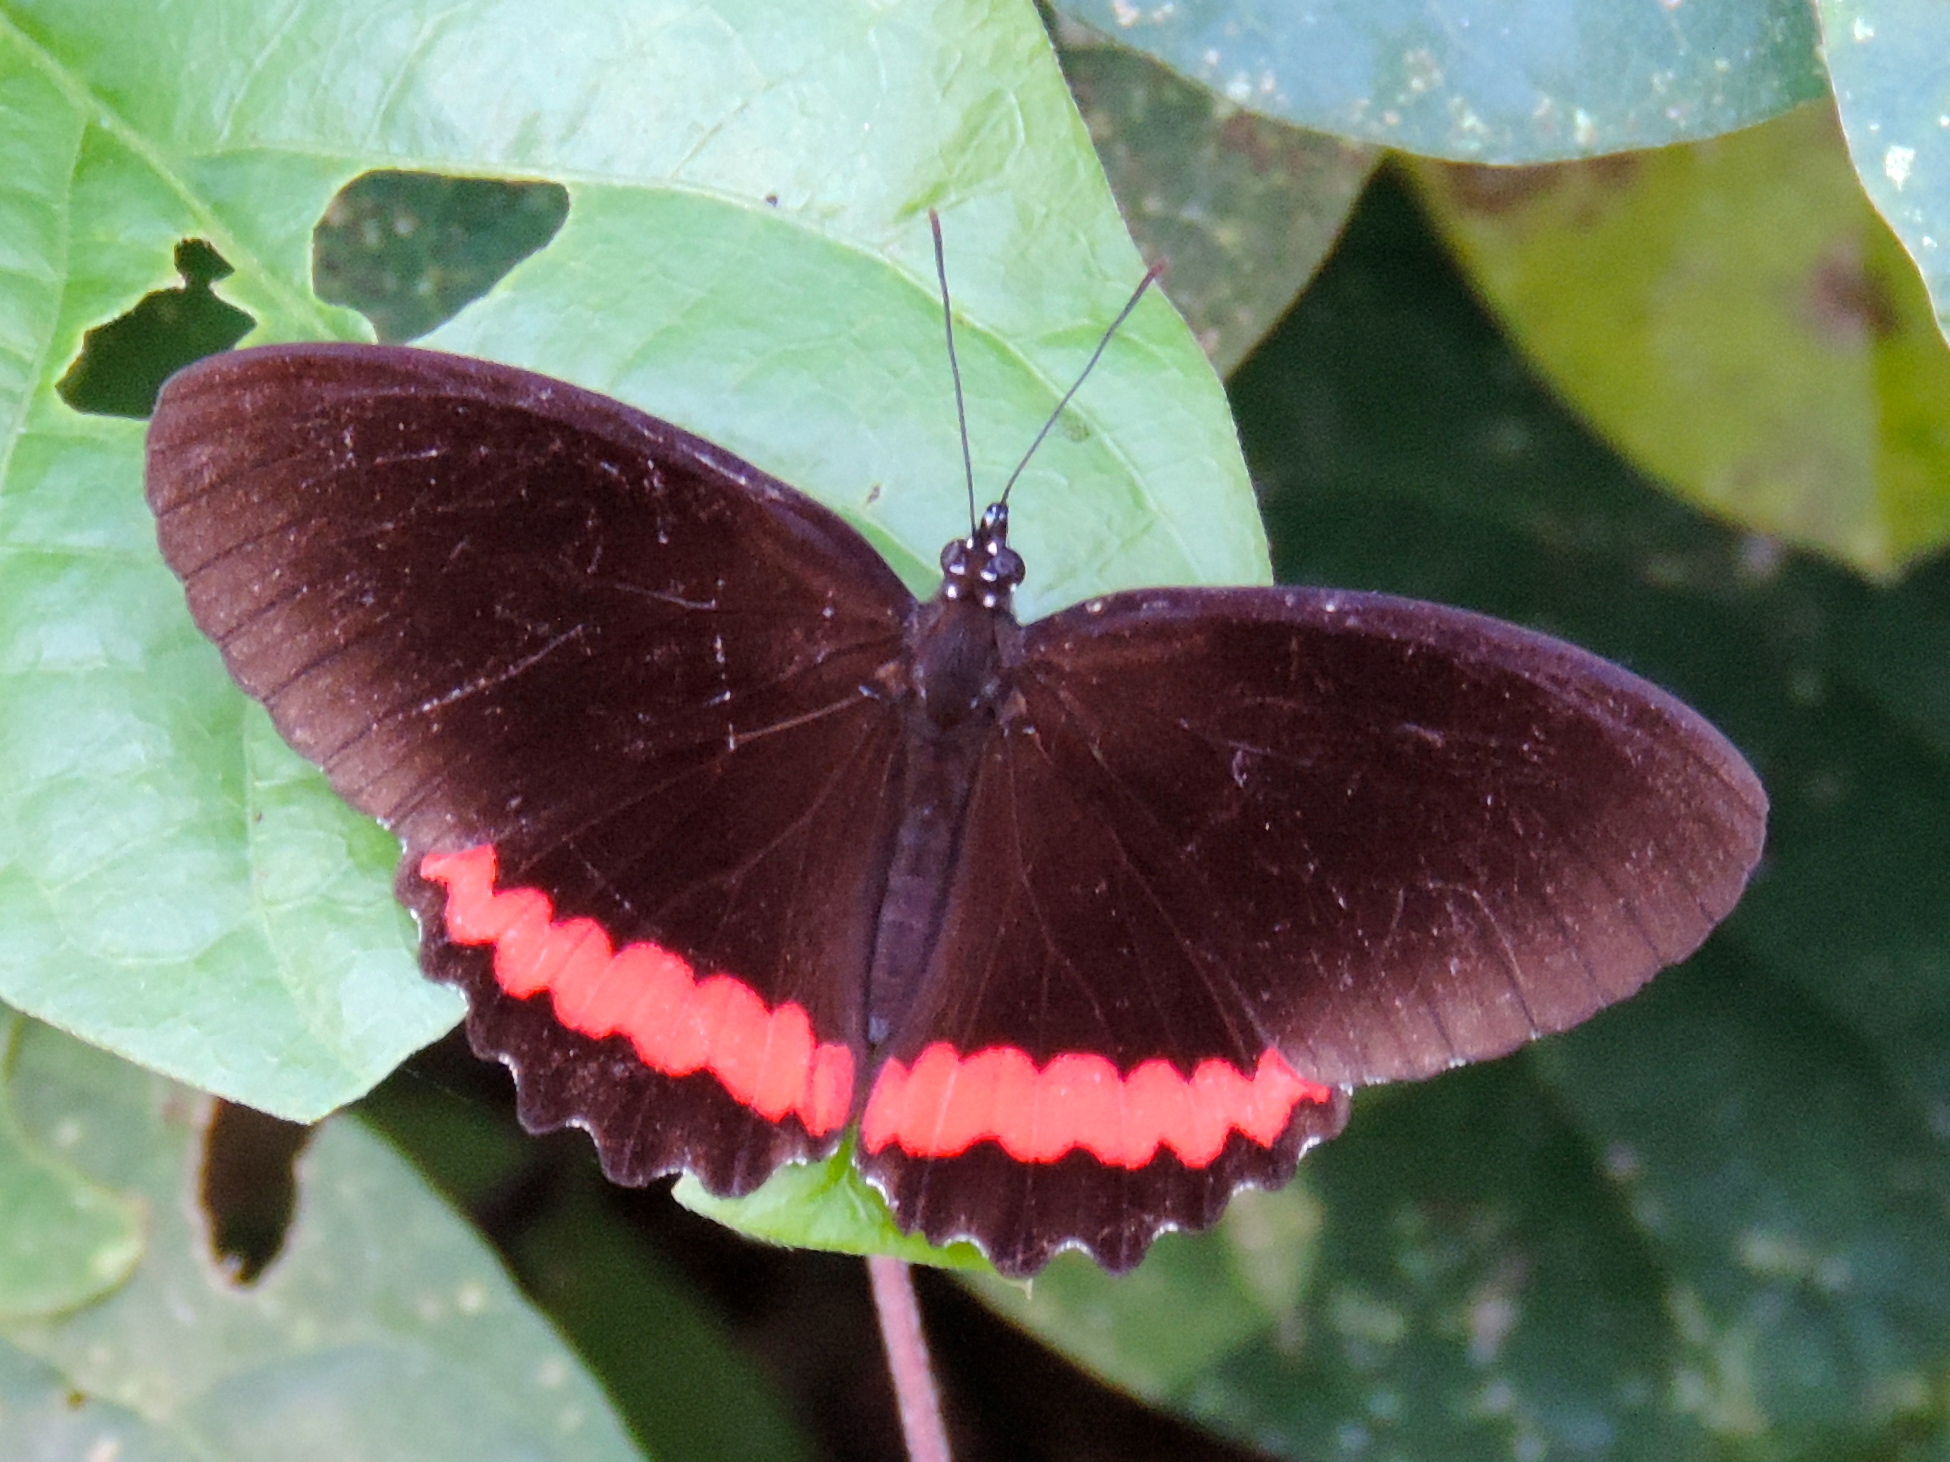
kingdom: Animalia
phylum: Arthropoda
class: Insecta
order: Lepidoptera
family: Nymphalidae
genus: Biblis
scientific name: Biblis aganisa
